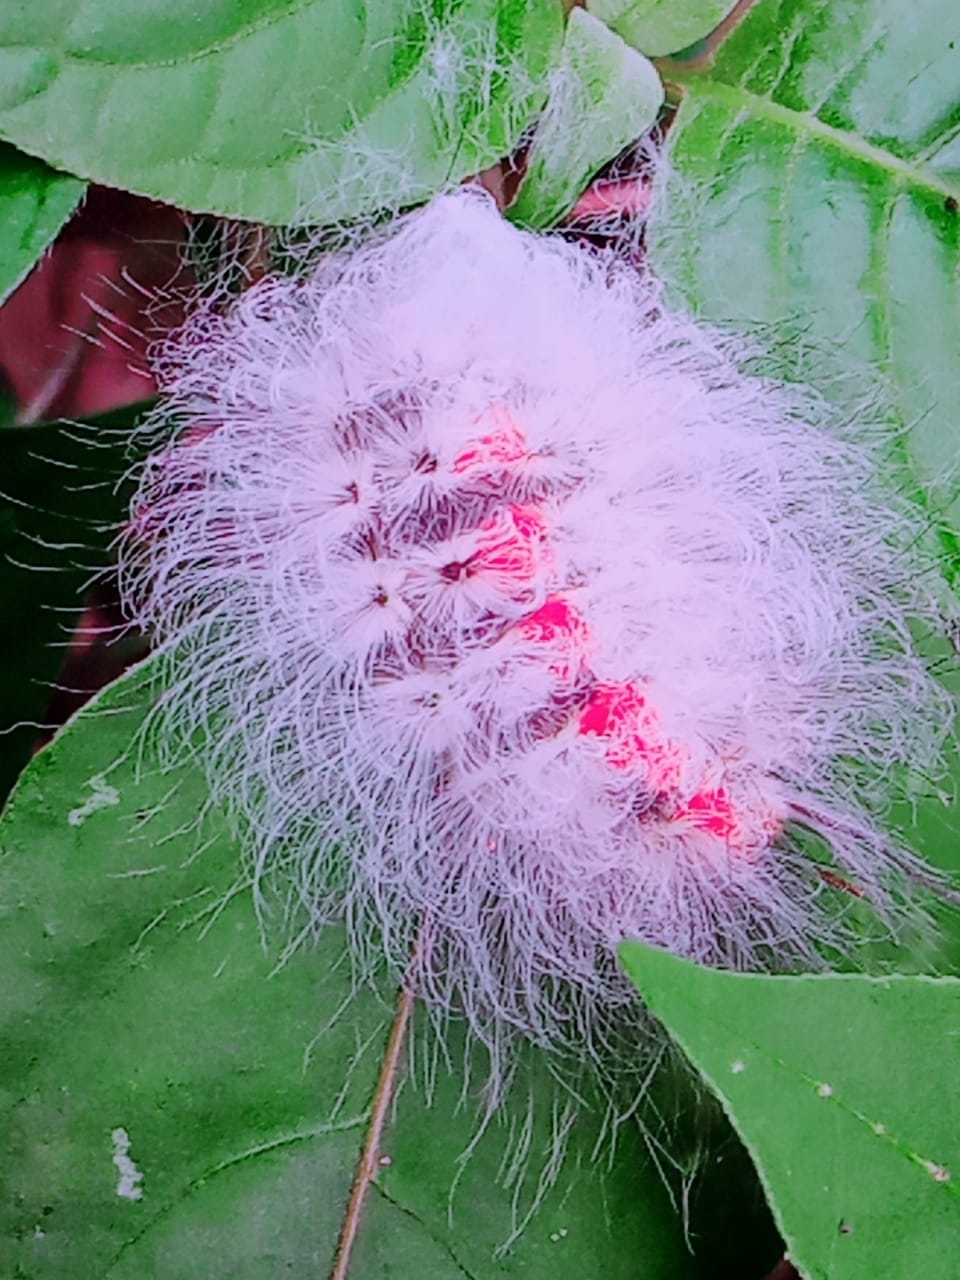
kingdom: Animalia
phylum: Arthropoda
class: Insecta
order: Lepidoptera
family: Megalopygidae
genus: Megalopyge
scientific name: Megalopyge basalis
